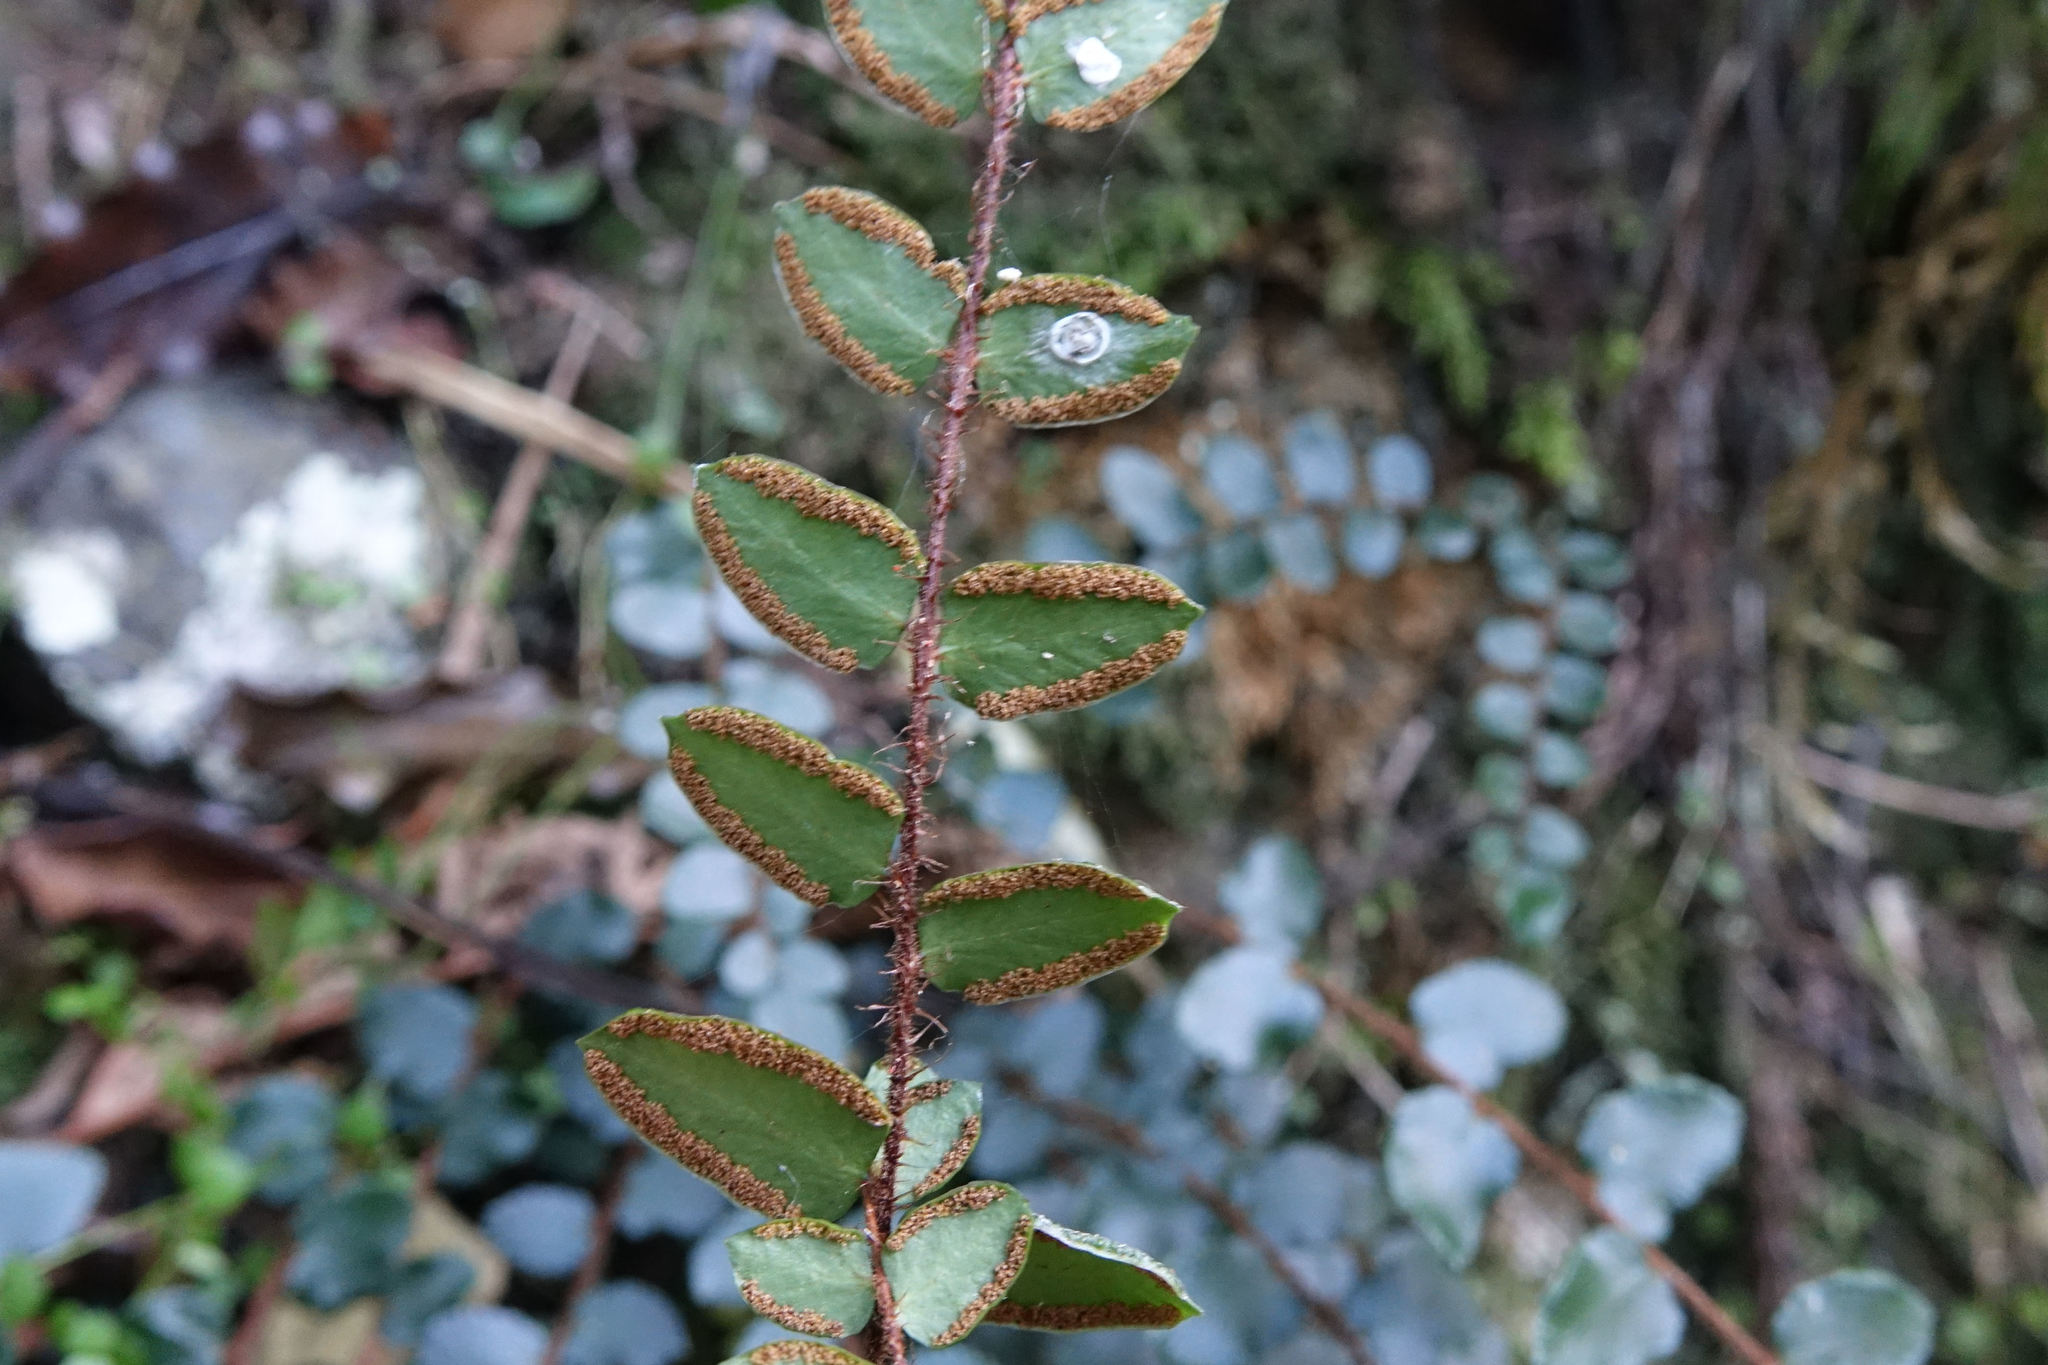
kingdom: Plantae
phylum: Tracheophyta
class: Polypodiopsida
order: Polypodiales
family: Pteridaceae
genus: Pellaea
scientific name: Pellaea rotundifolia
